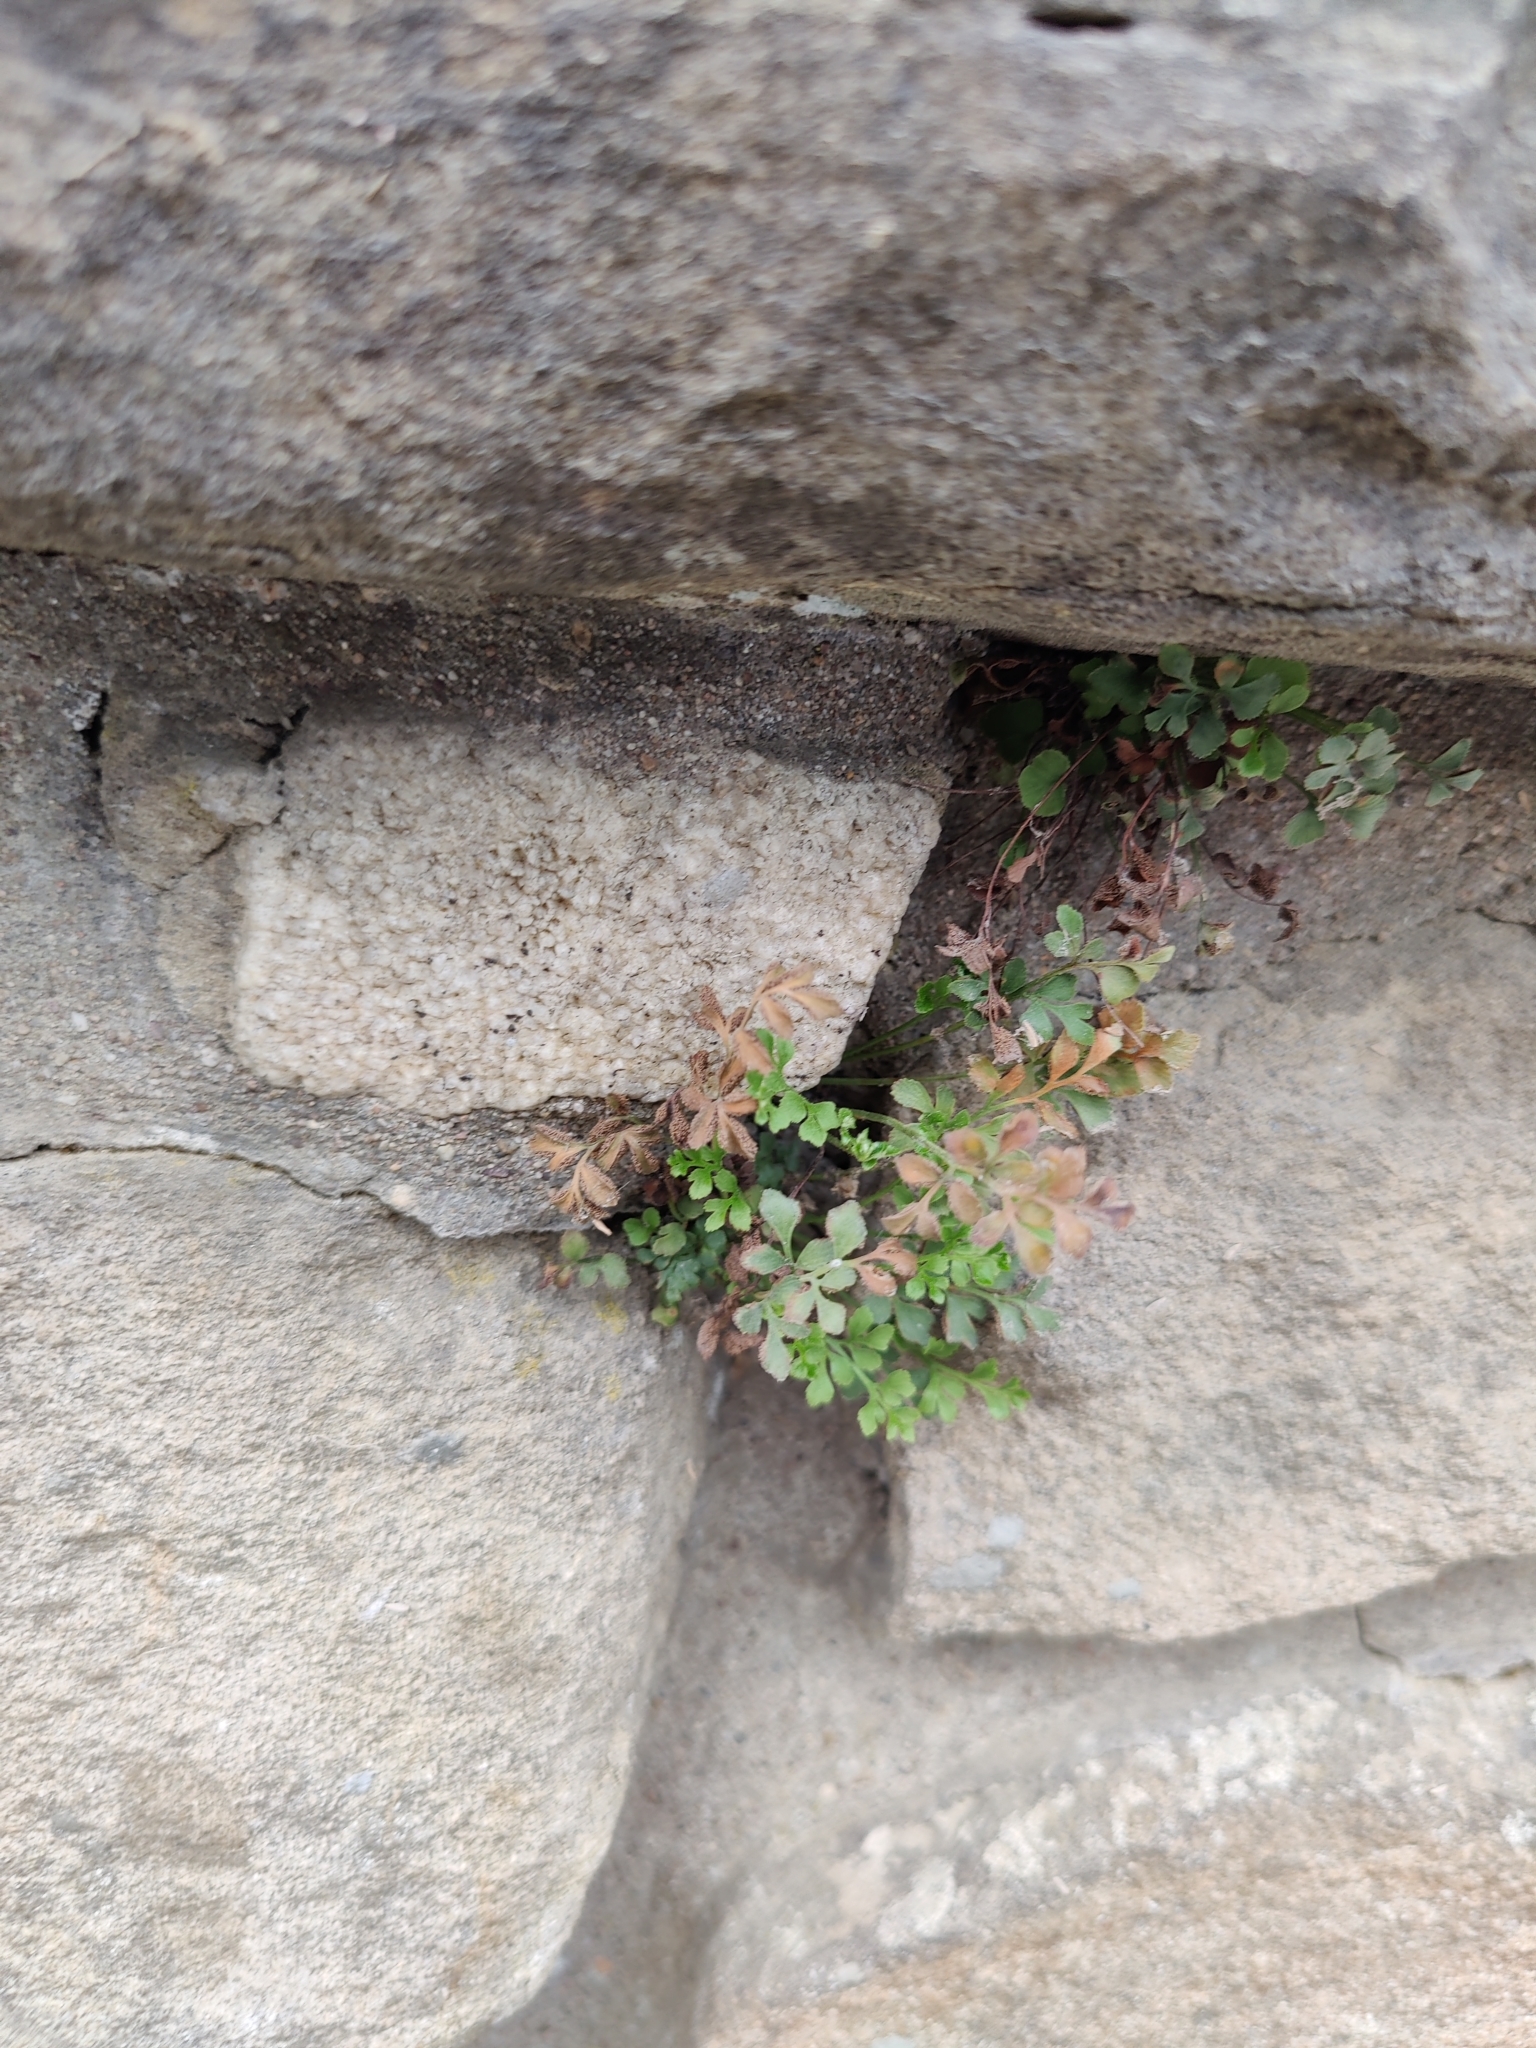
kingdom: Plantae
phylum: Tracheophyta
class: Polypodiopsida
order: Polypodiales
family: Aspleniaceae
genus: Asplenium
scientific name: Asplenium ruta-muraria
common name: Wall-rue
